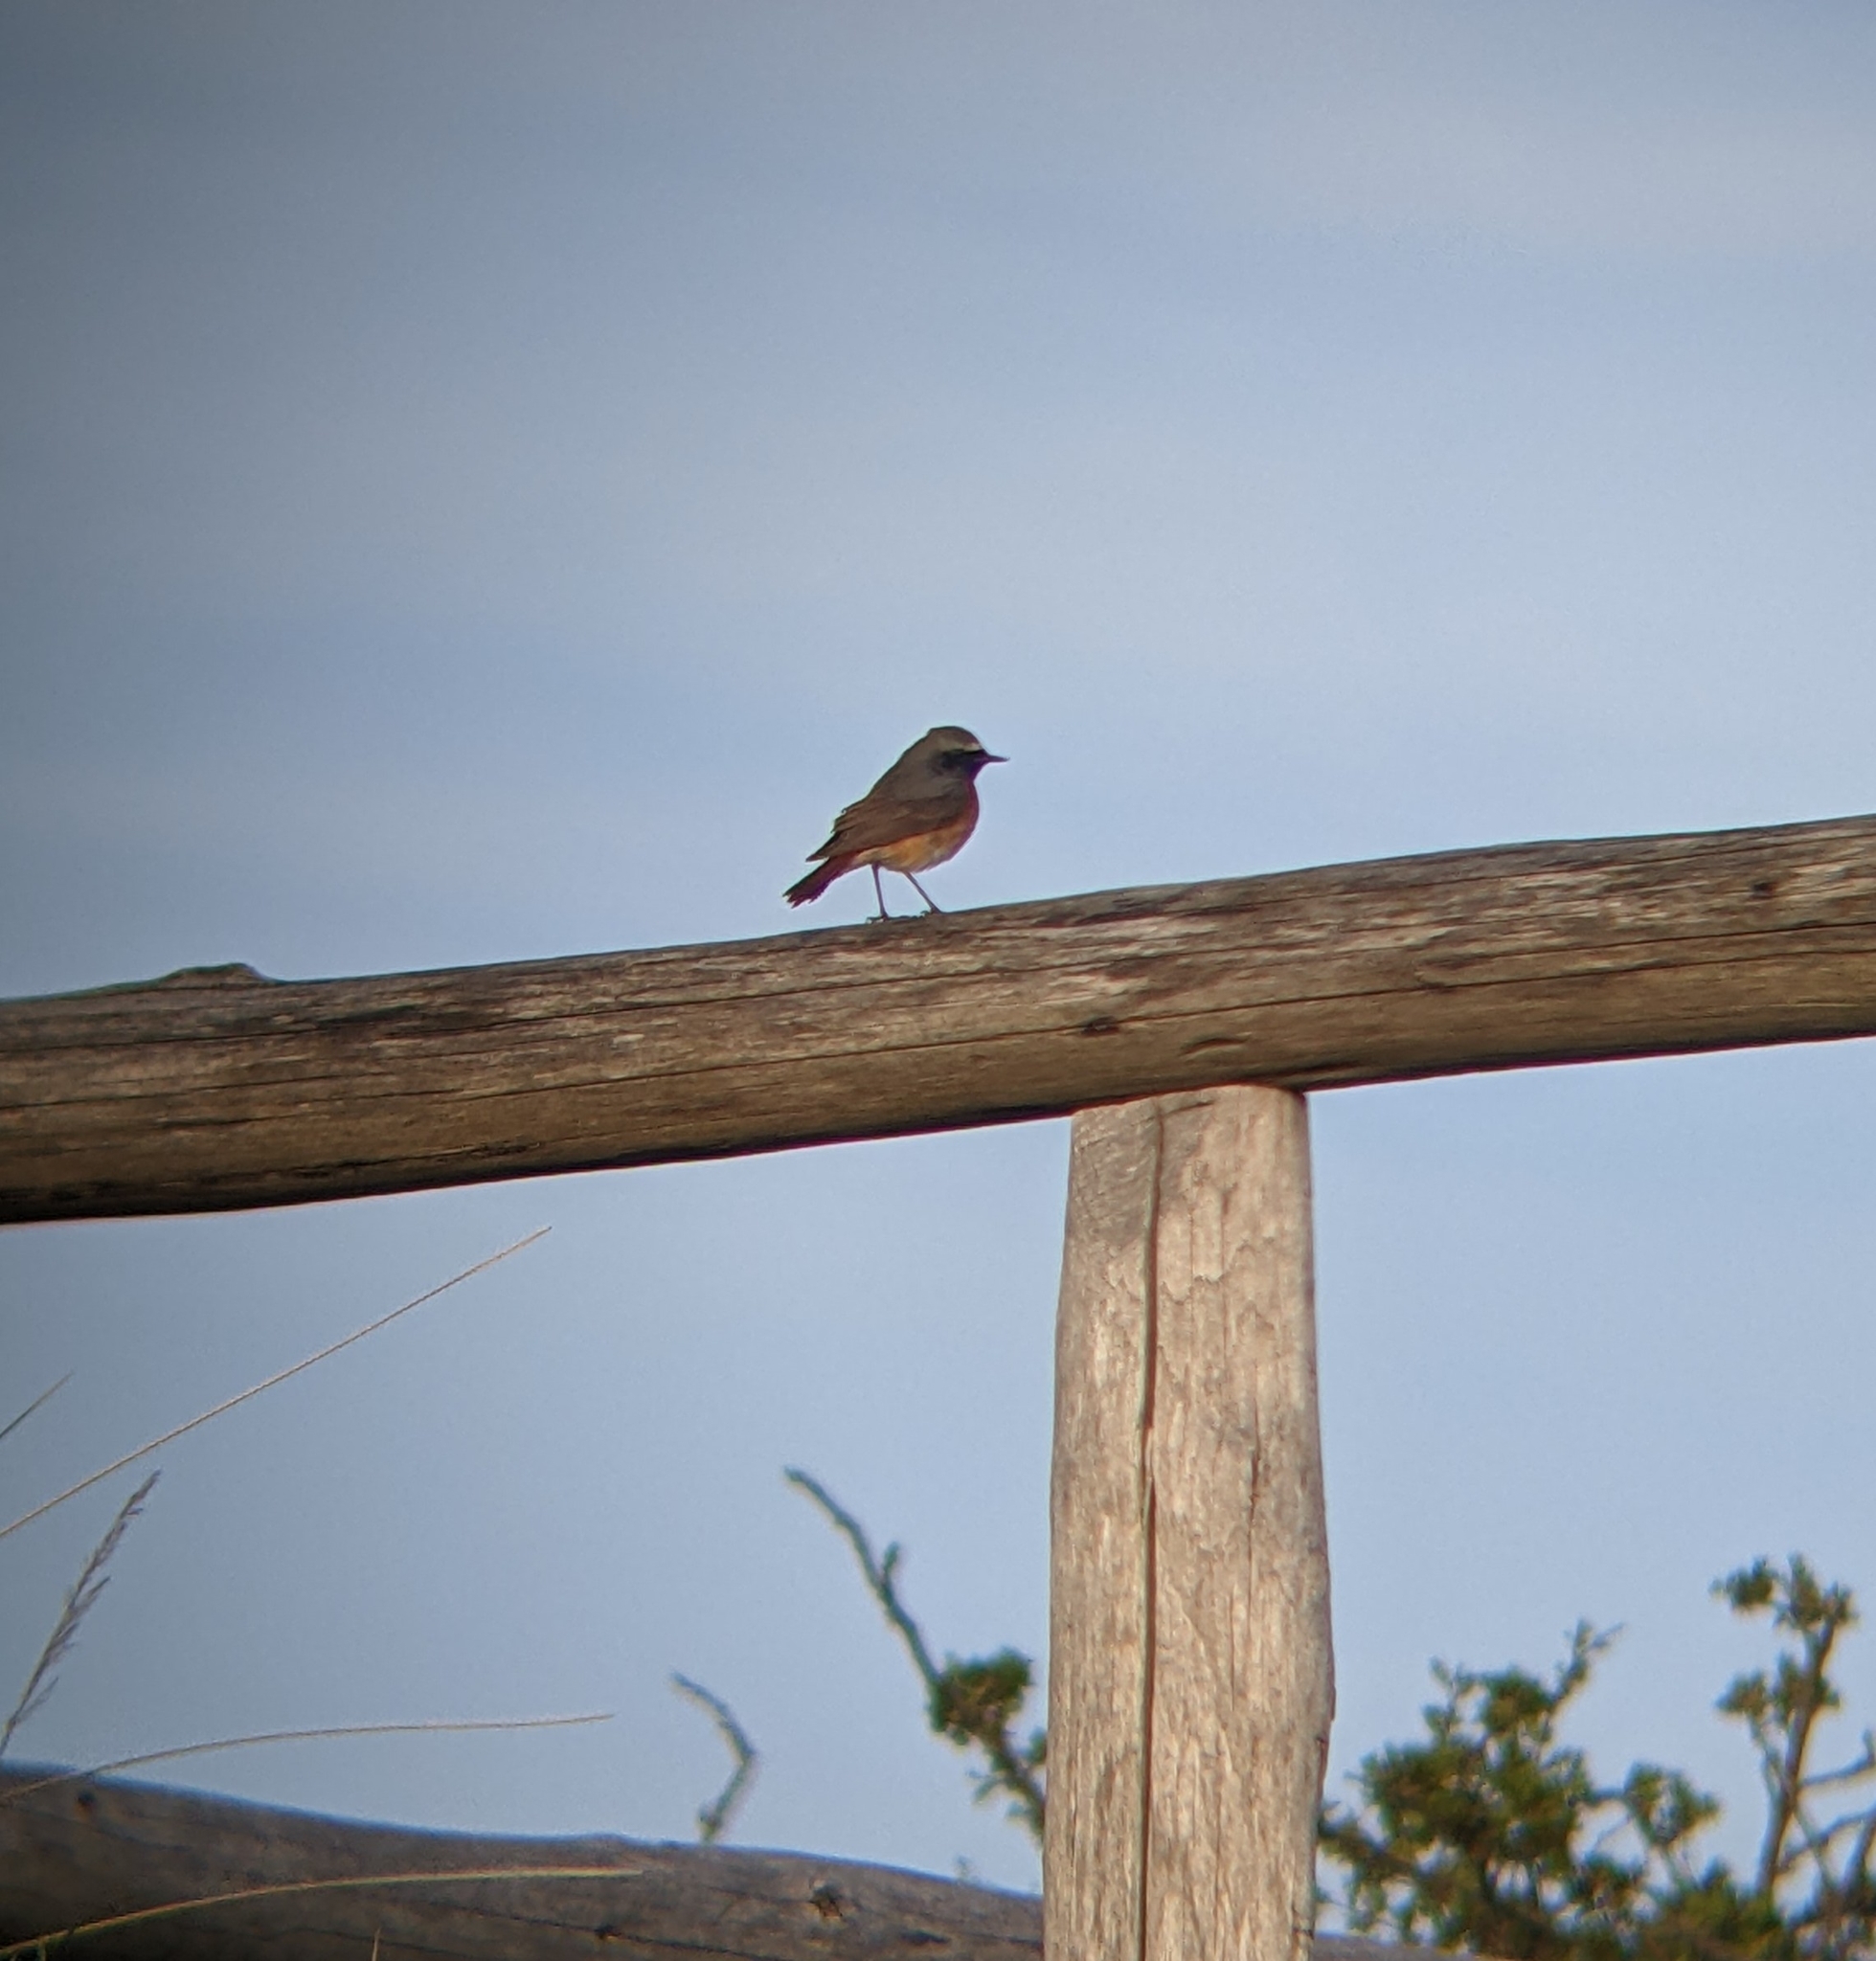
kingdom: Animalia
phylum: Chordata
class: Aves
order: Passeriformes
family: Muscicapidae
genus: Phoenicurus
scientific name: Phoenicurus phoenicurus
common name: Common redstart
